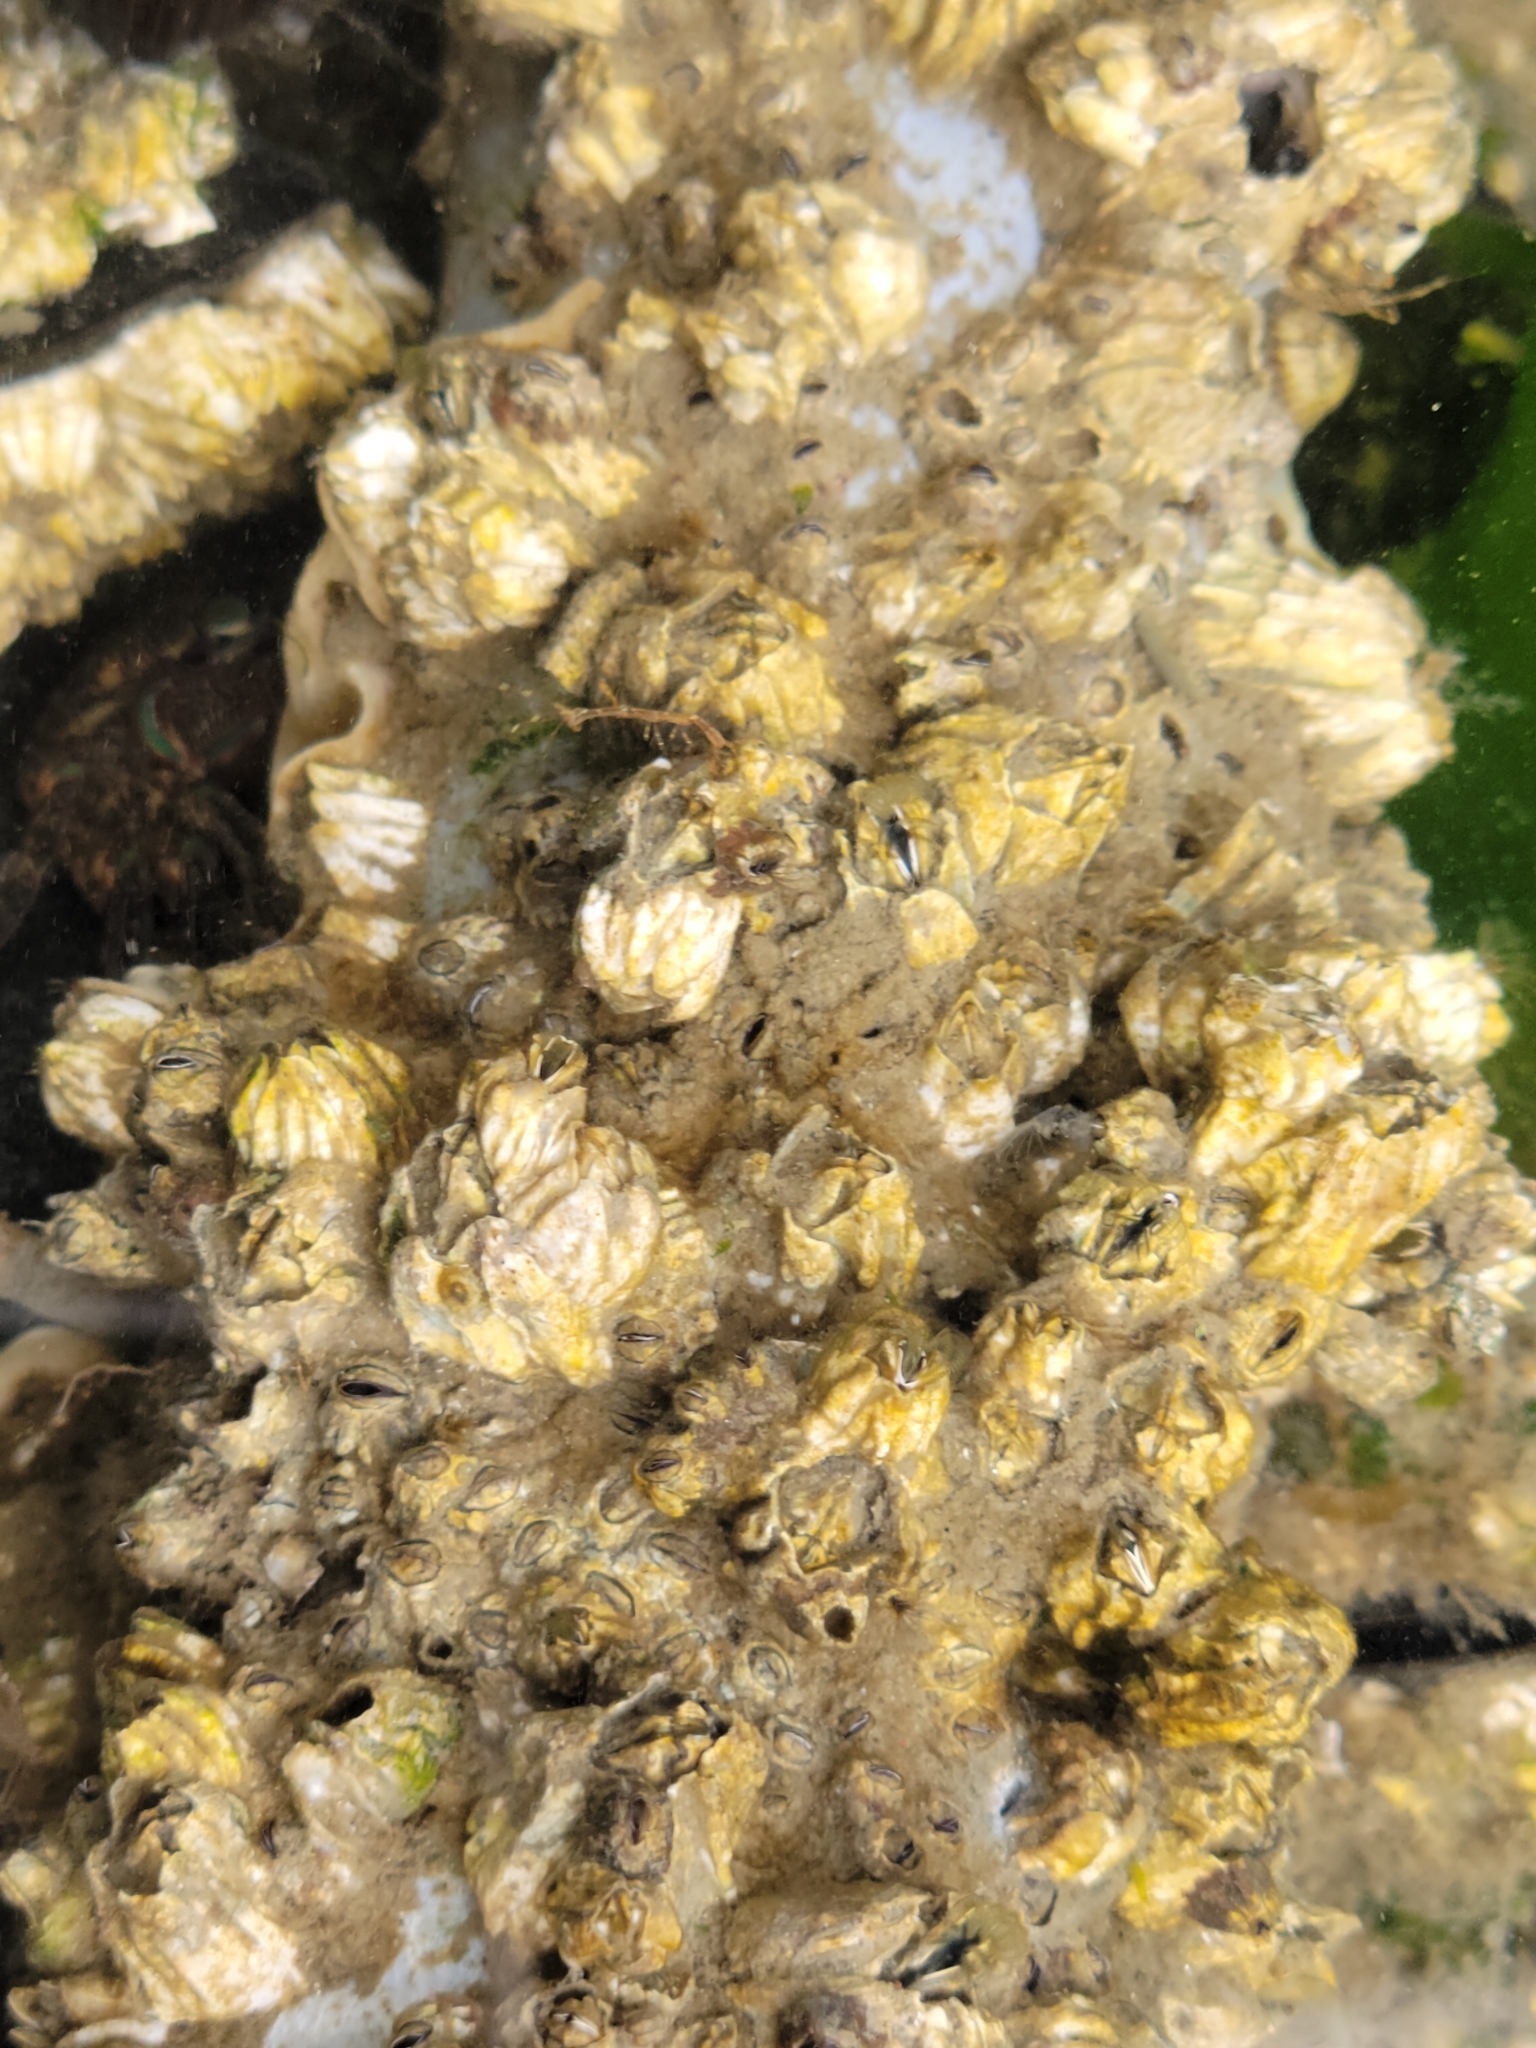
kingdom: Animalia
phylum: Arthropoda
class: Maxillopoda
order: Sessilia
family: Balanidae
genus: Balanus
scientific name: Balanus glandula
